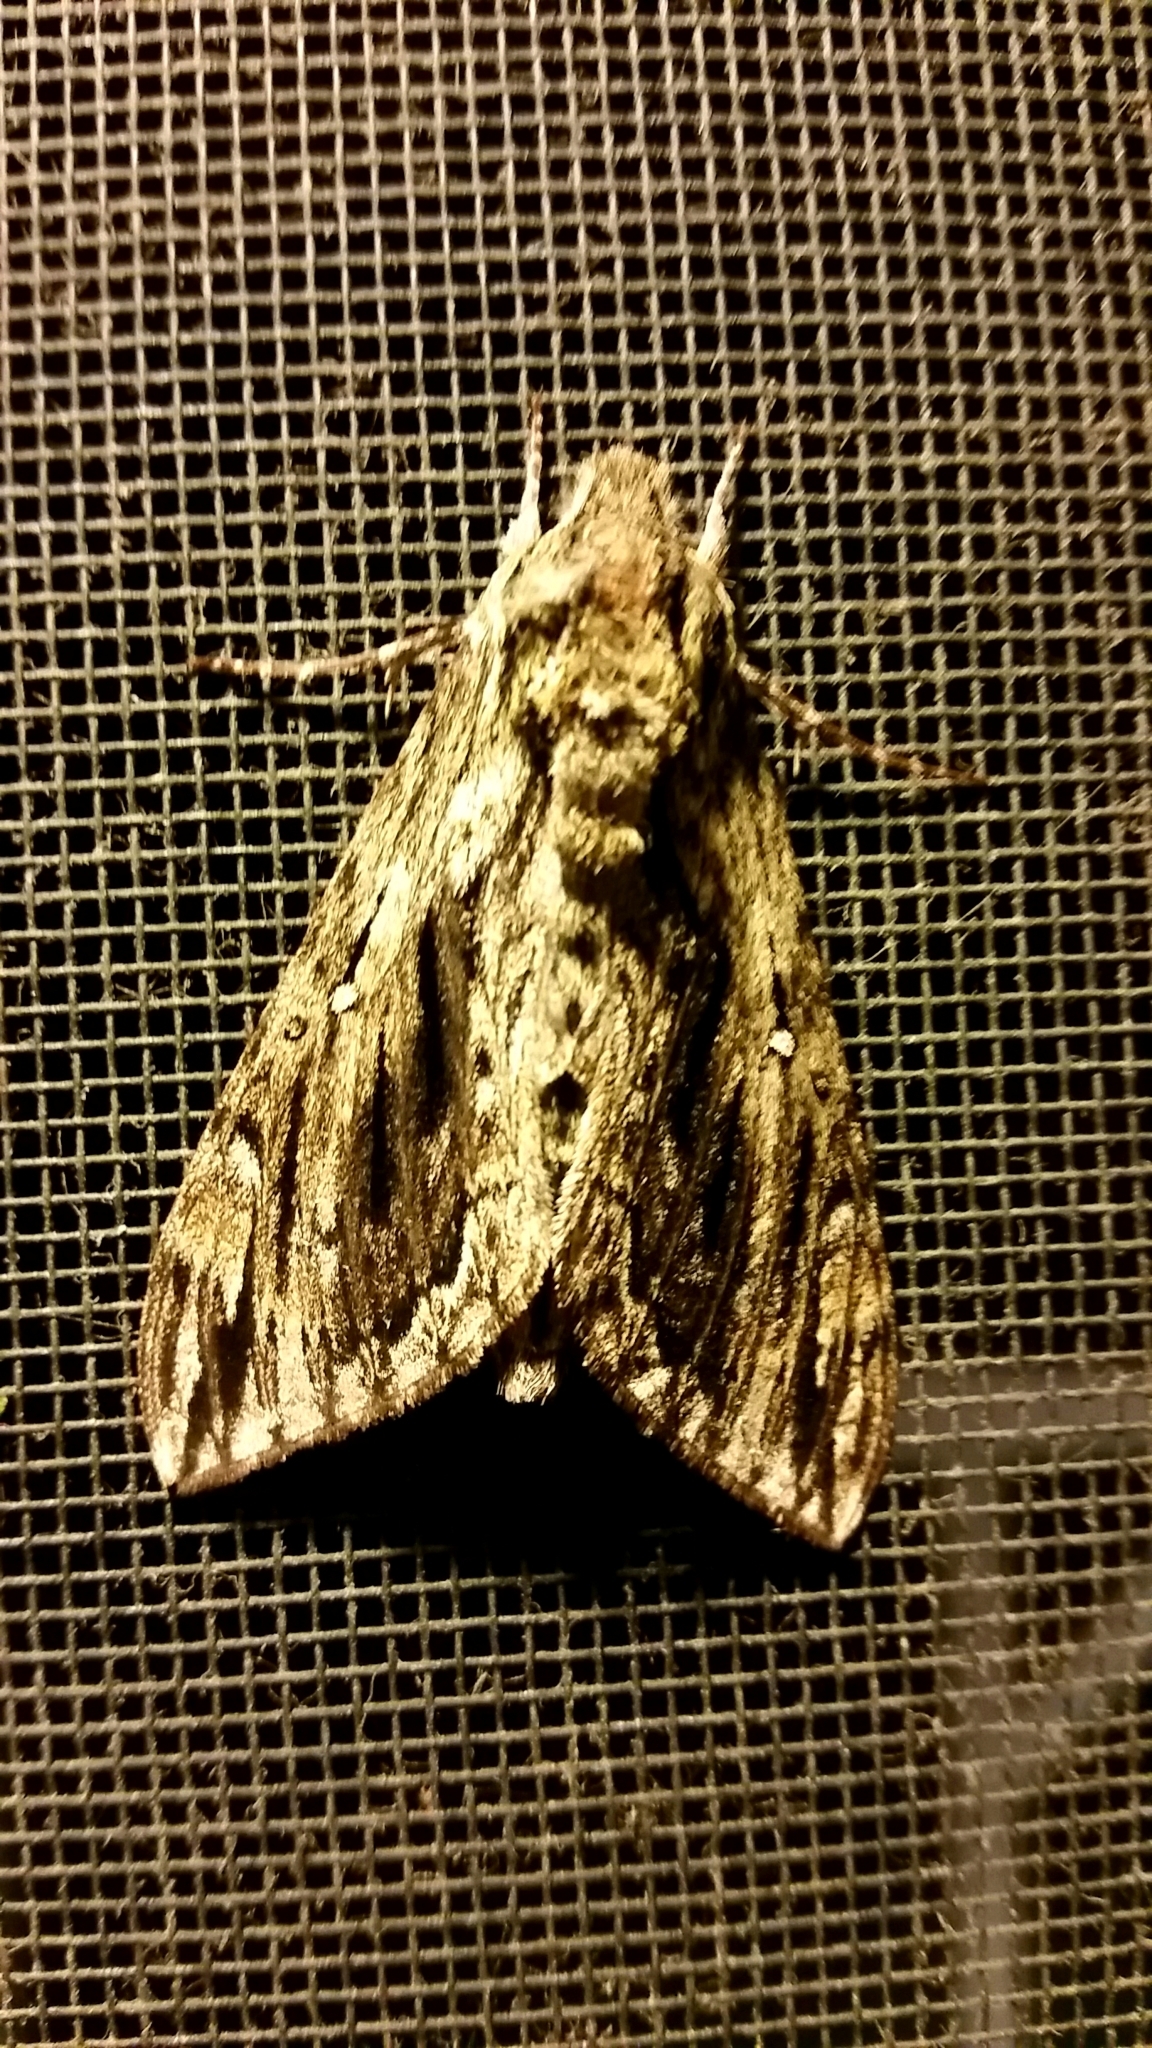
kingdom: Animalia
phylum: Arthropoda
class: Insecta
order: Lepidoptera
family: Sphingidae
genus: Lintneria
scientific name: Lintneria eremitus
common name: Hermit sphinx
